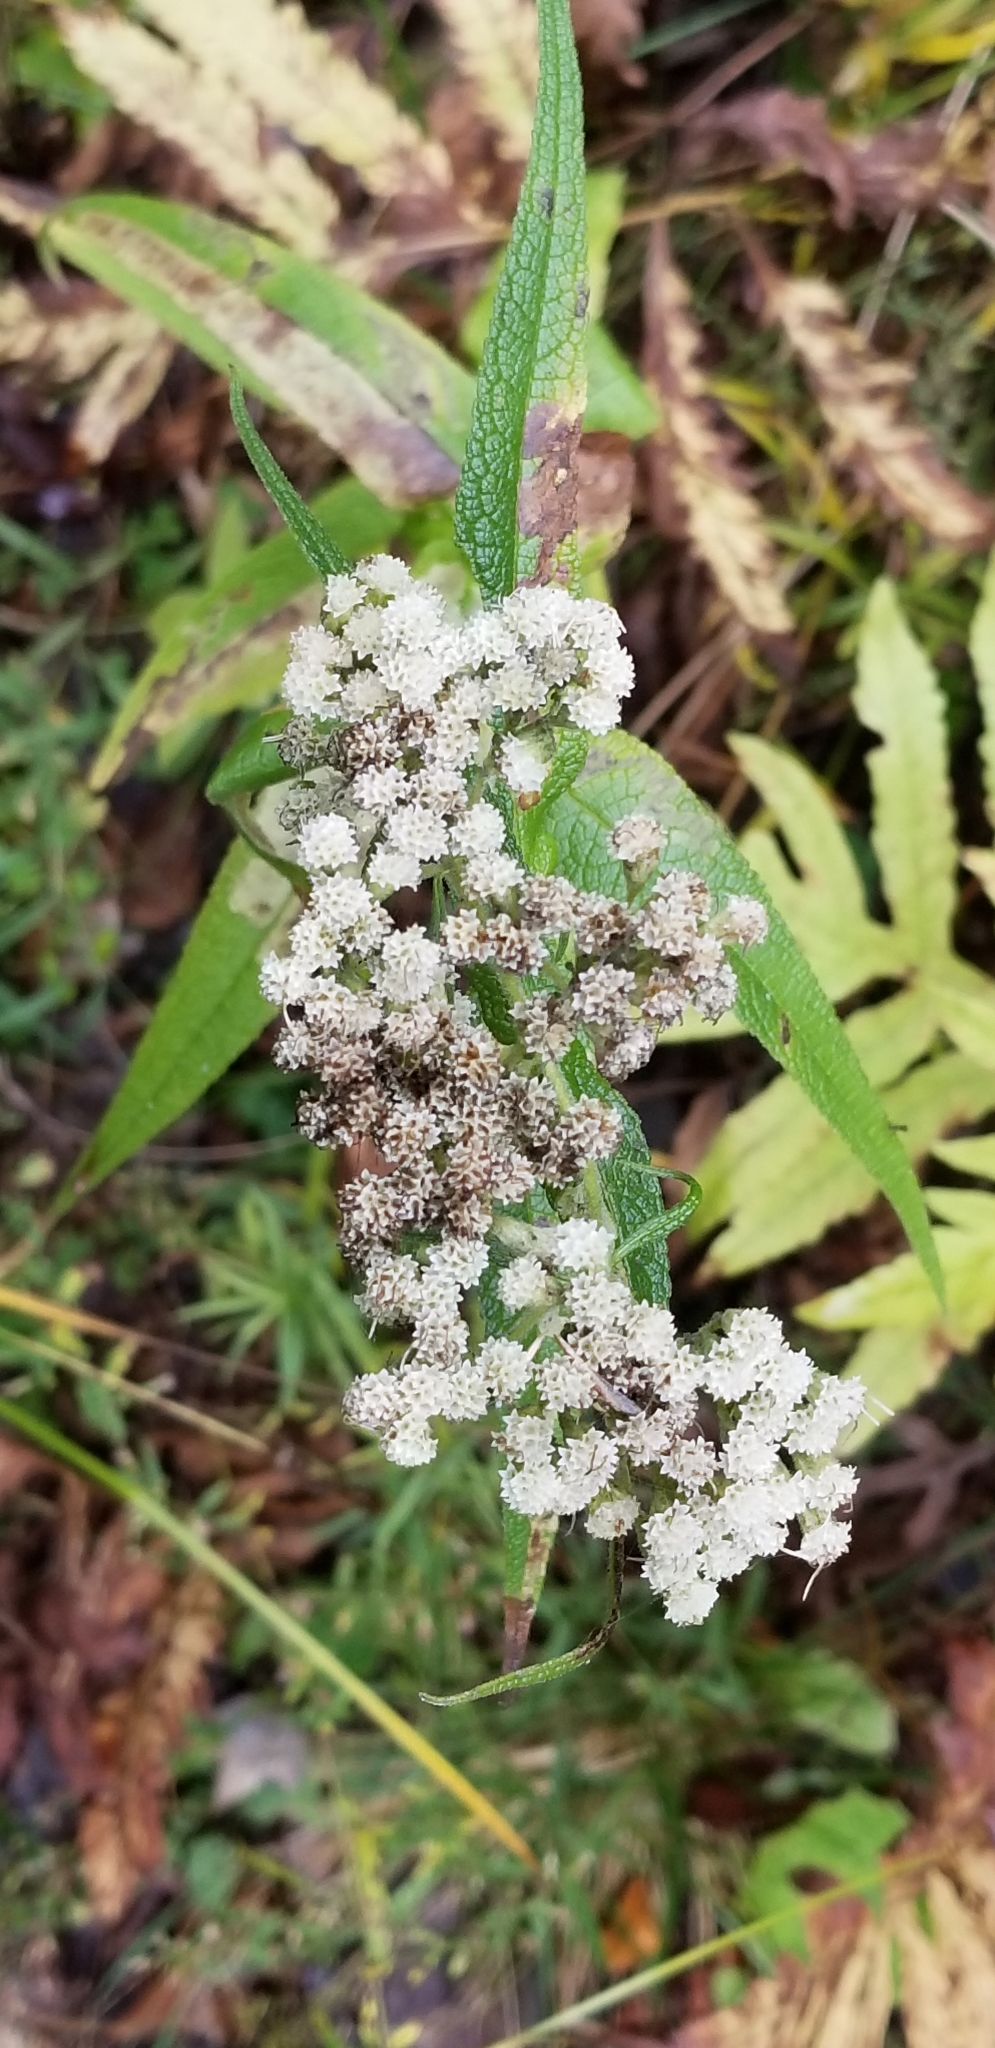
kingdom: Plantae
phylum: Tracheophyta
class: Magnoliopsida
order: Asterales
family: Asteraceae
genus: Eupatorium
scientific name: Eupatorium perfoliatum
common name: Boneset
